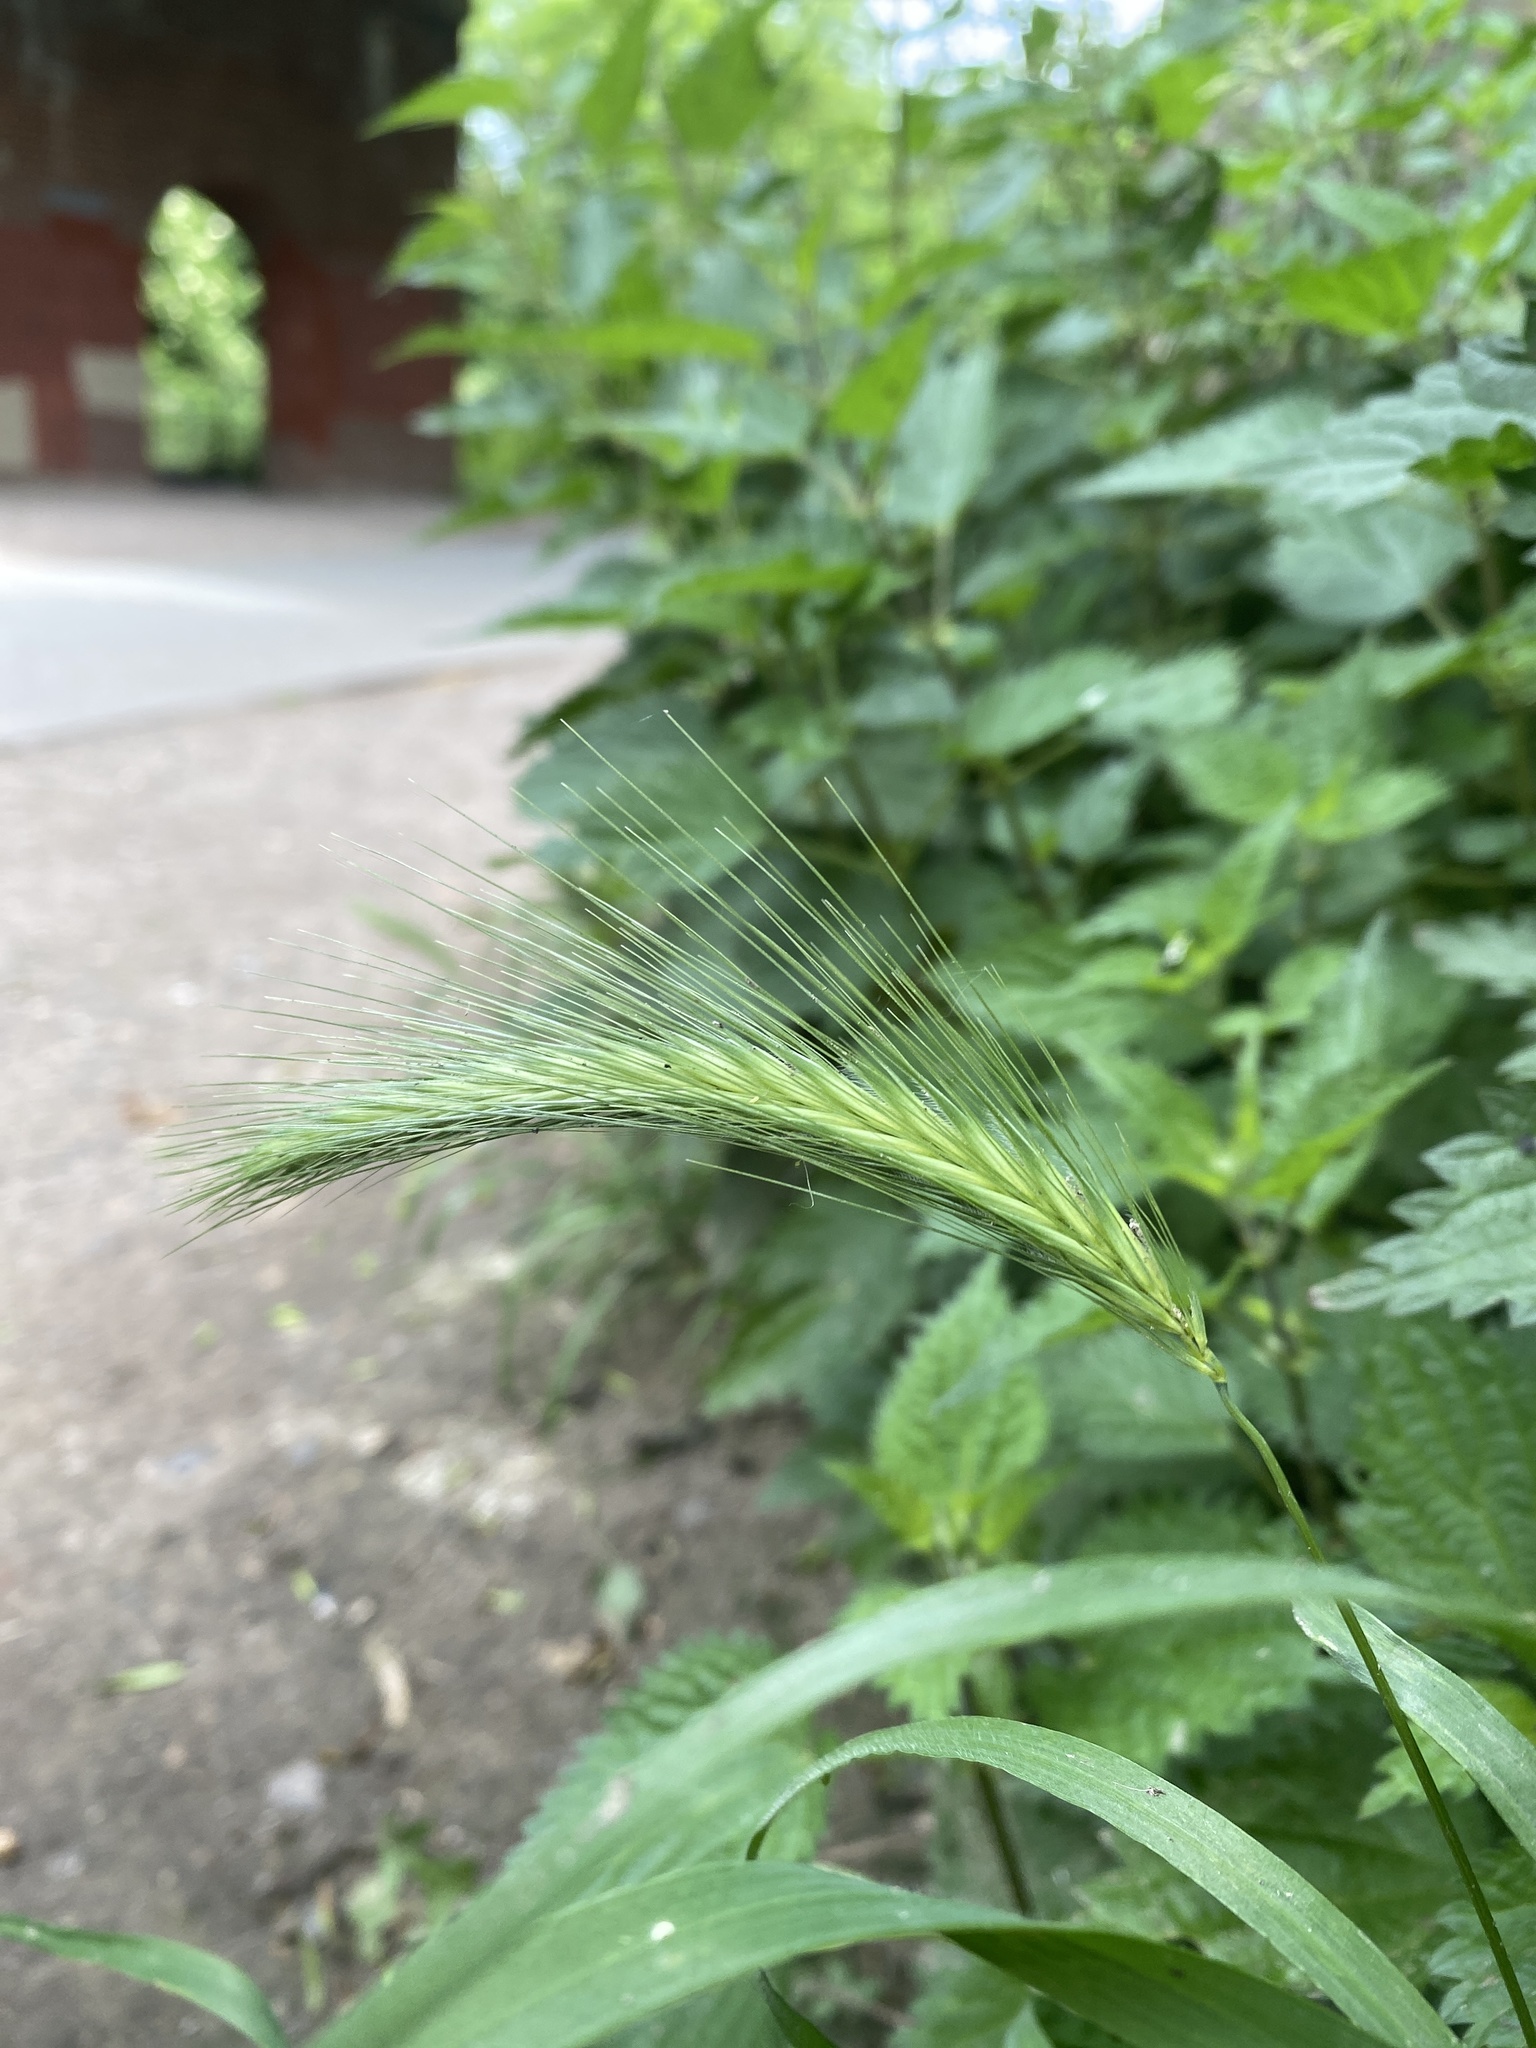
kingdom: Plantae
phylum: Tracheophyta
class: Liliopsida
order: Poales
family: Poaceae
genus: Hordeum
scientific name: Hordeum murinum
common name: Wall barley
